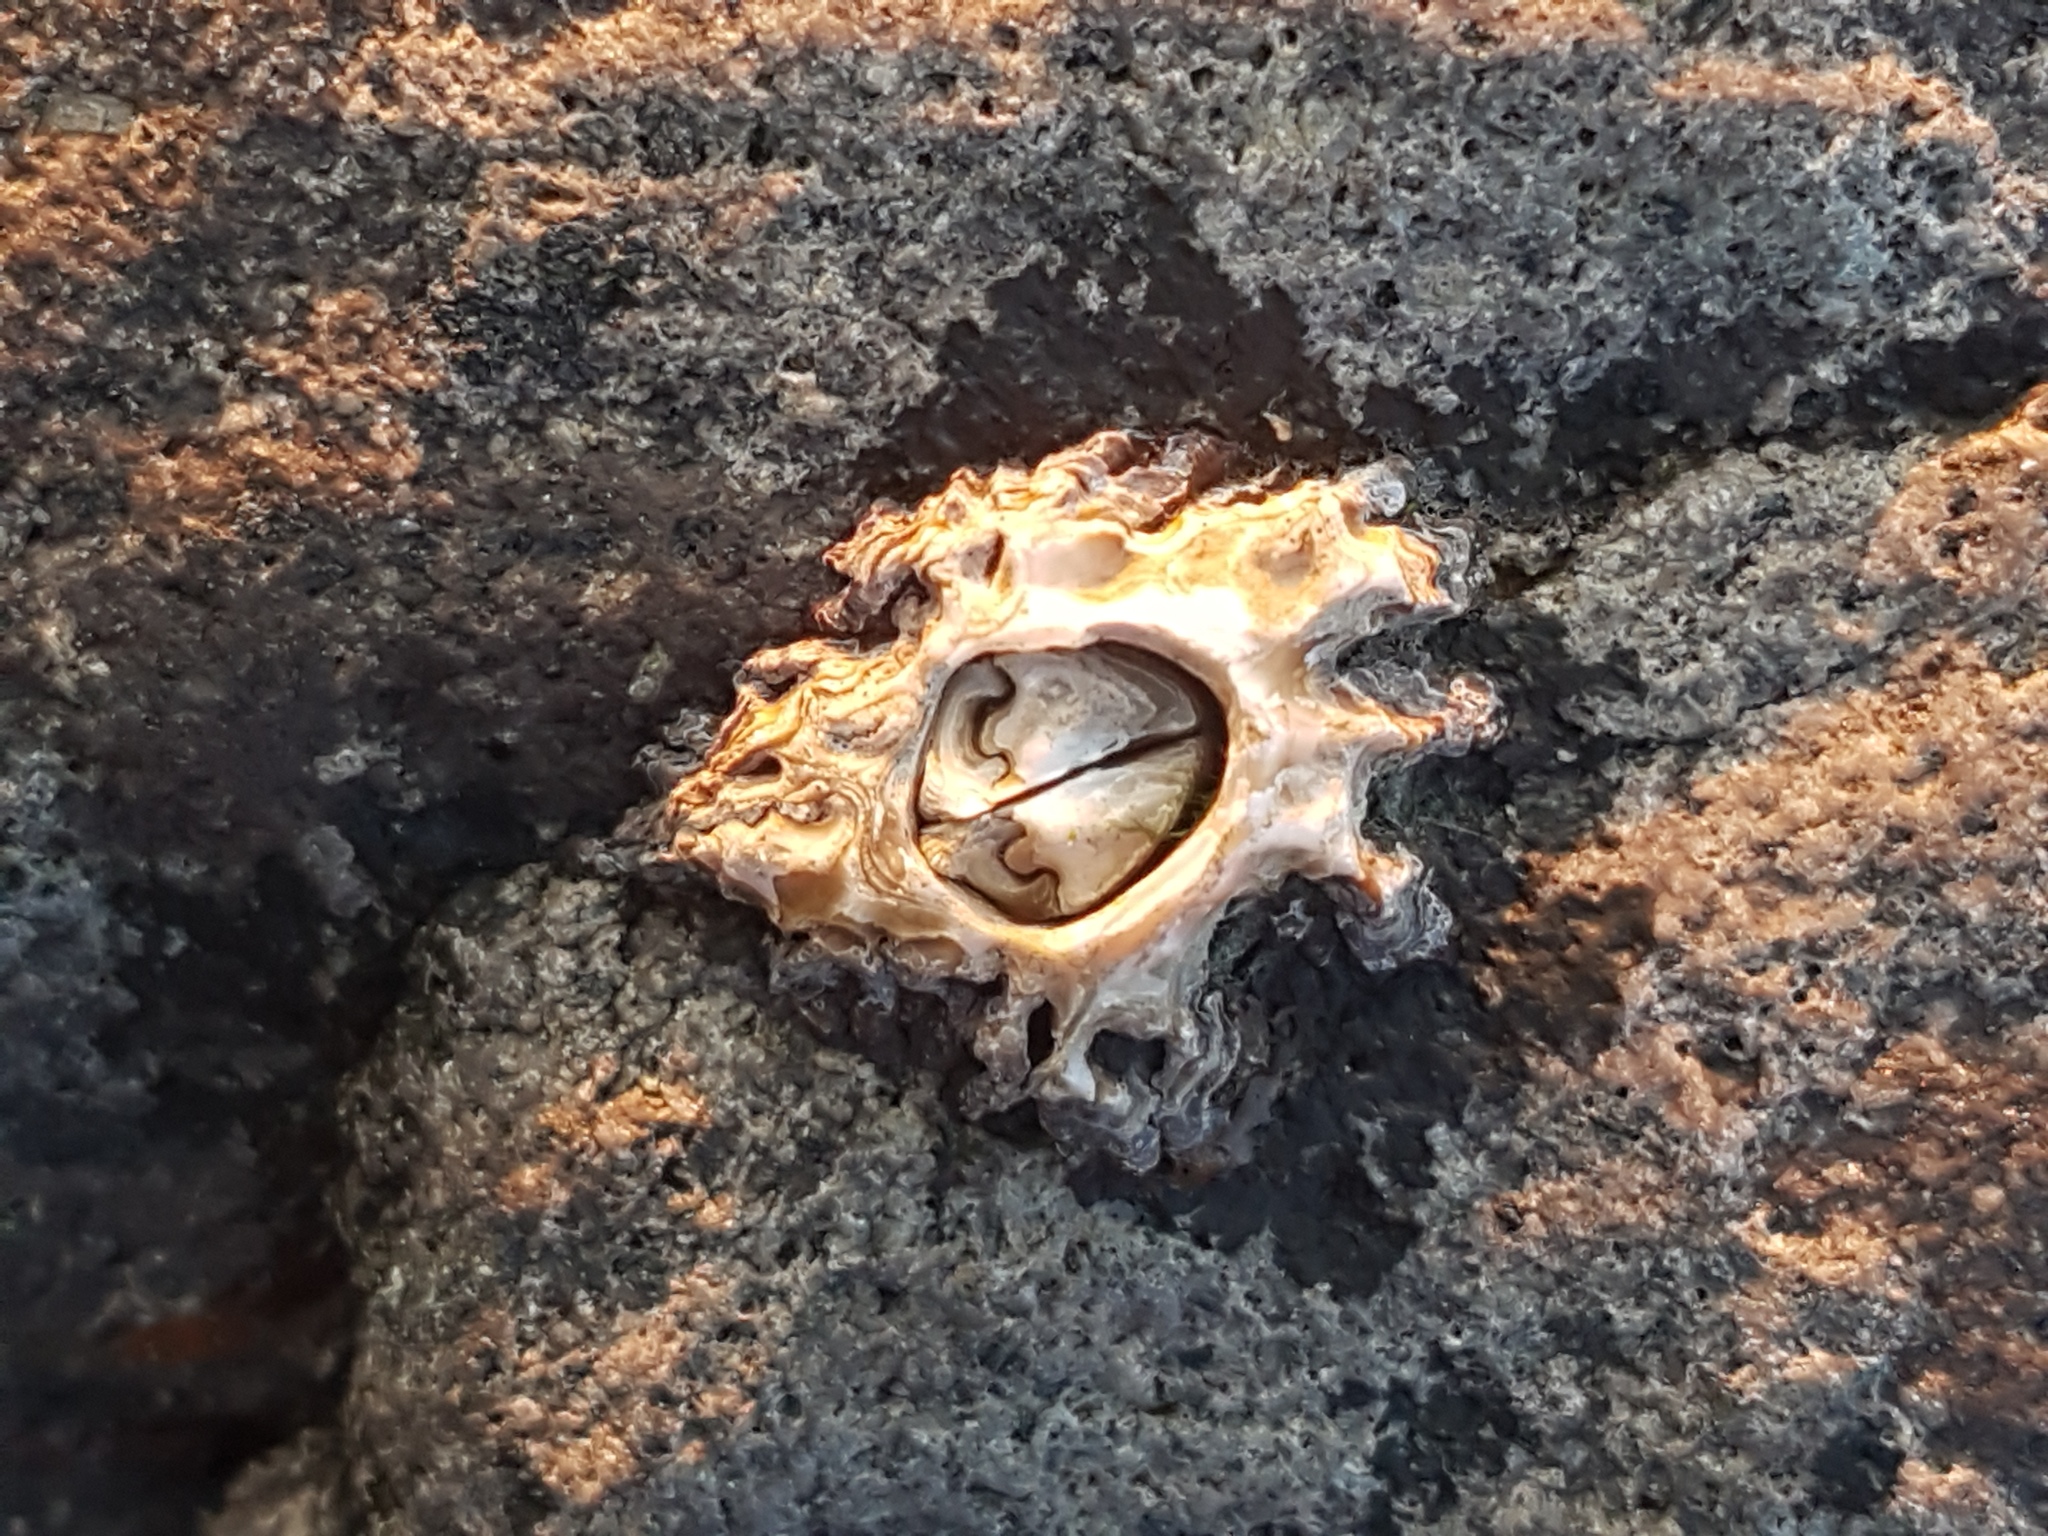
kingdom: Animalia
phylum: Arthropoda
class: Maxillopoda
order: Sessilia
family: Chthamalidae
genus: Chamaesipho
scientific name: Chamaesipho brunnea
